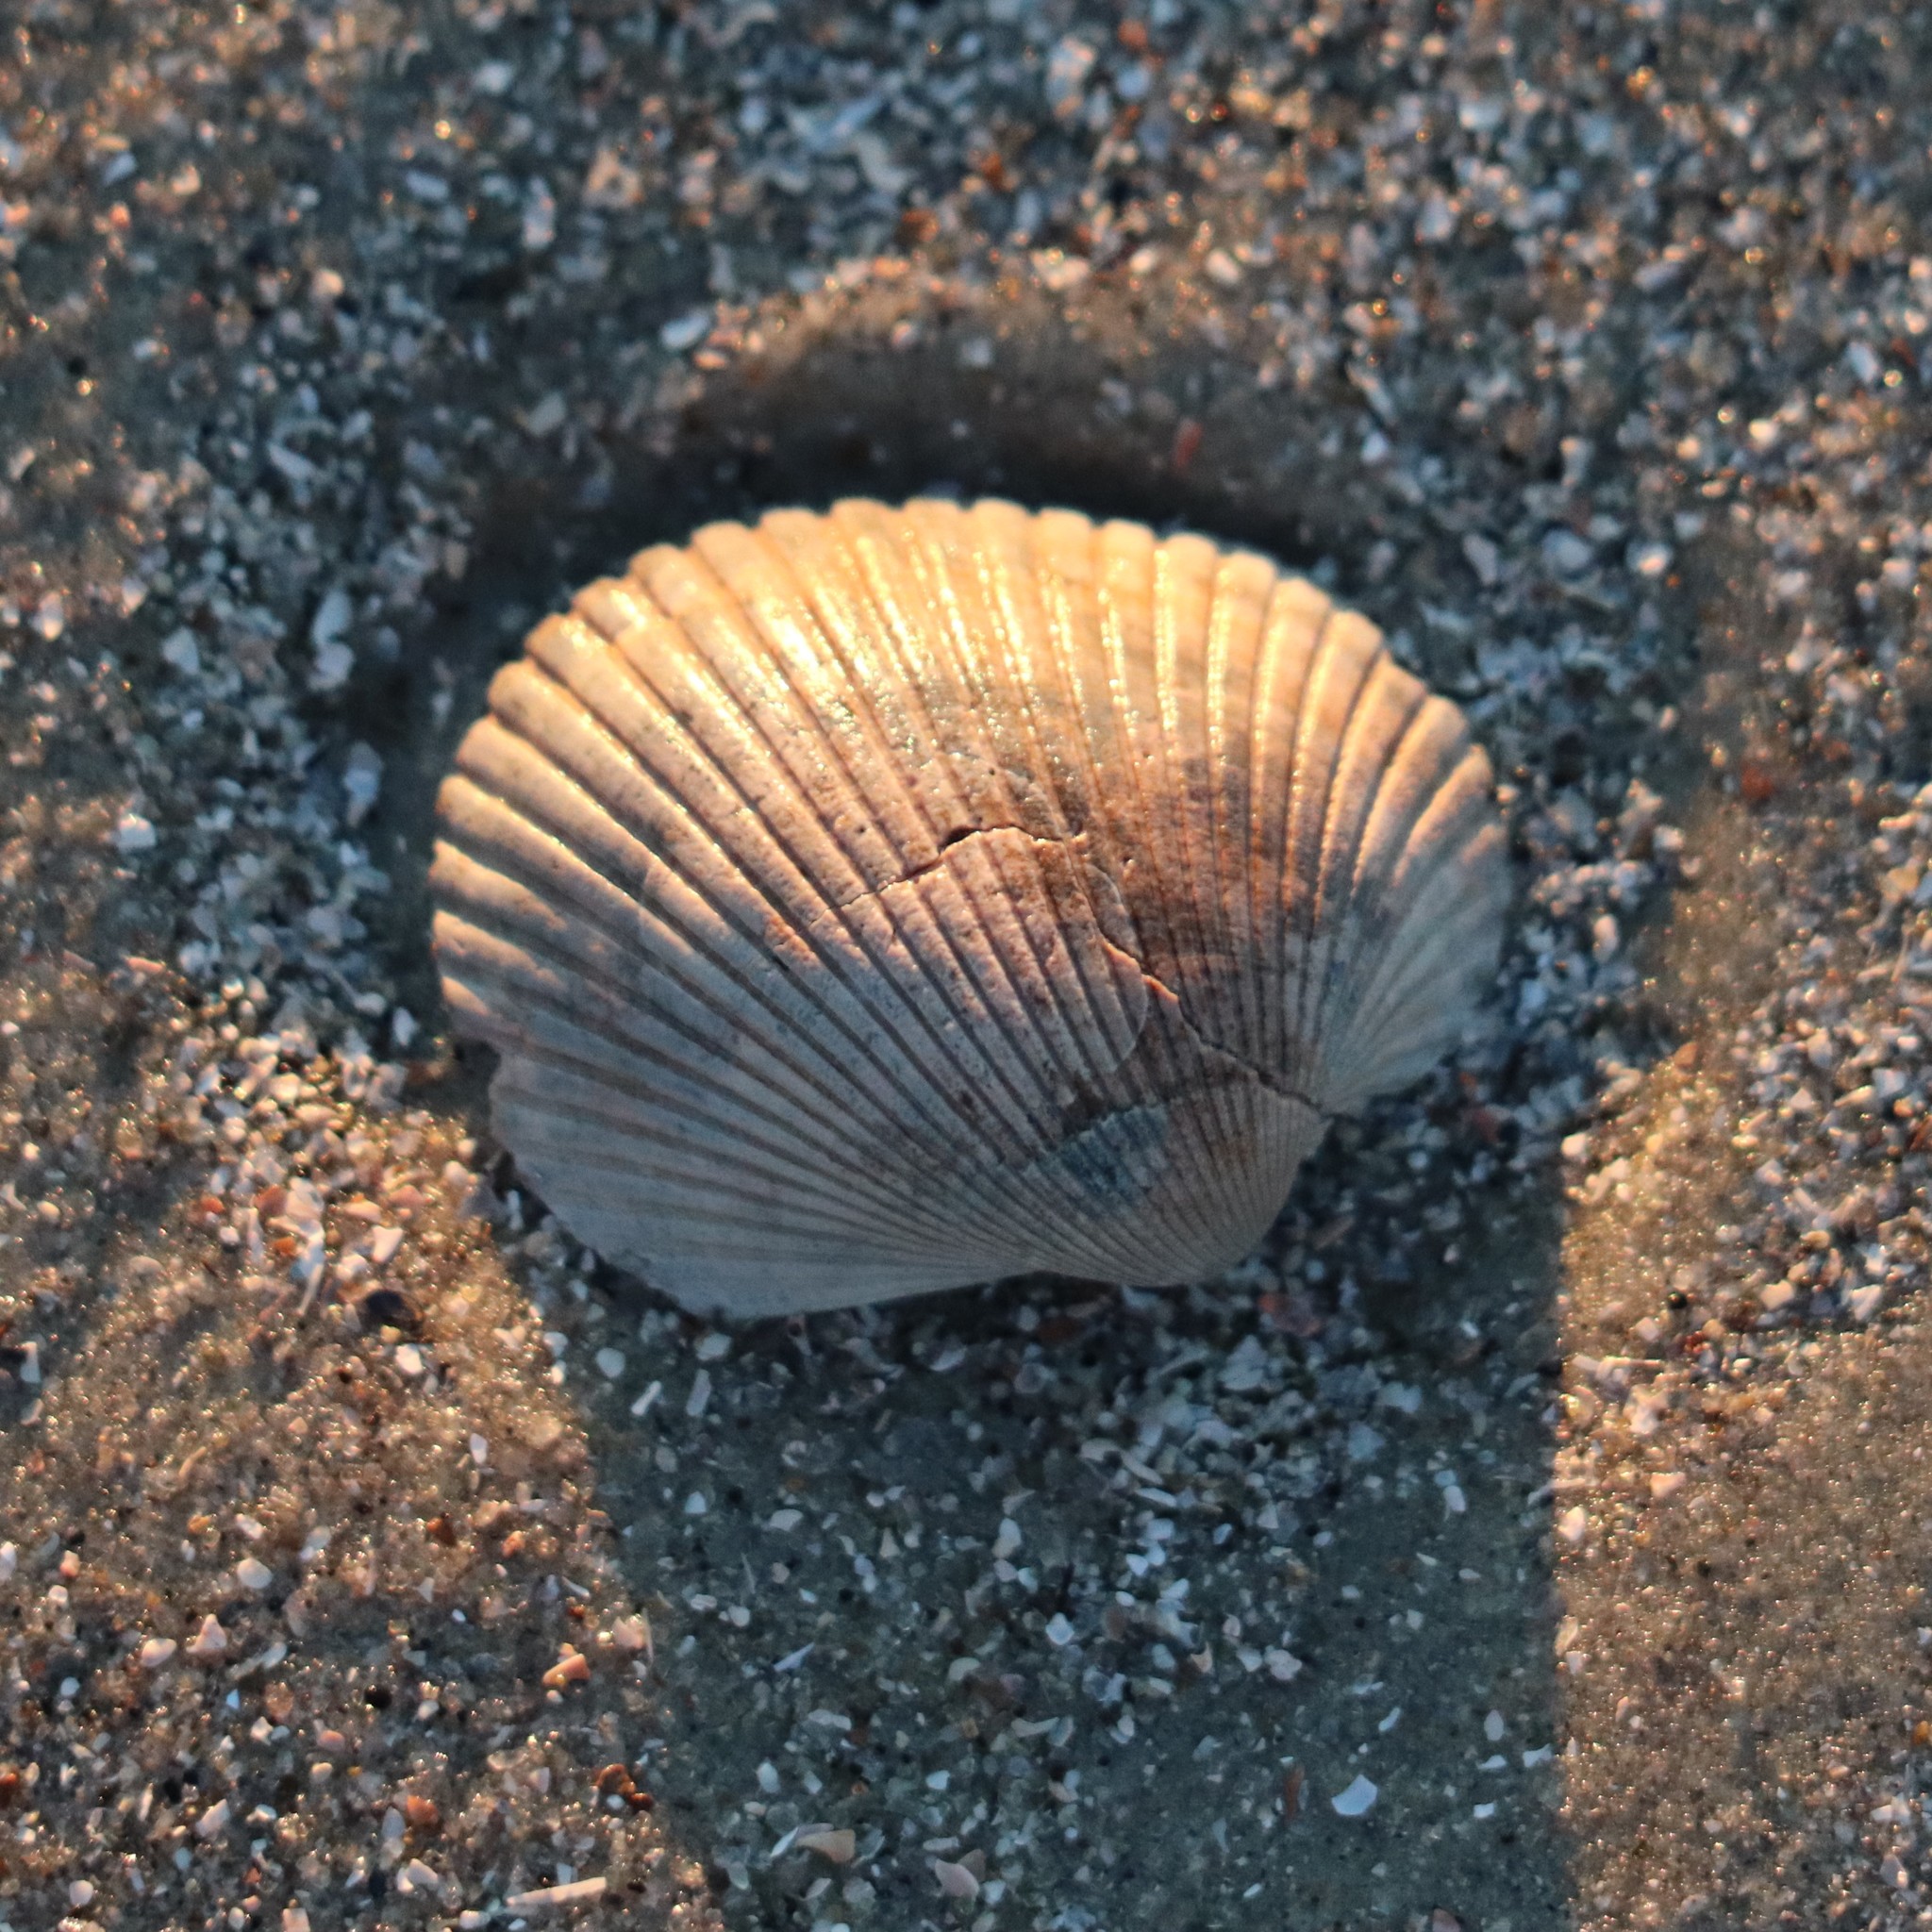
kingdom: Animalia
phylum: Mollusca
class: Bivalvia
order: Arcida
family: Arcidae
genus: Lunarca
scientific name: Lunarca ovalis
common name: Blood ark
